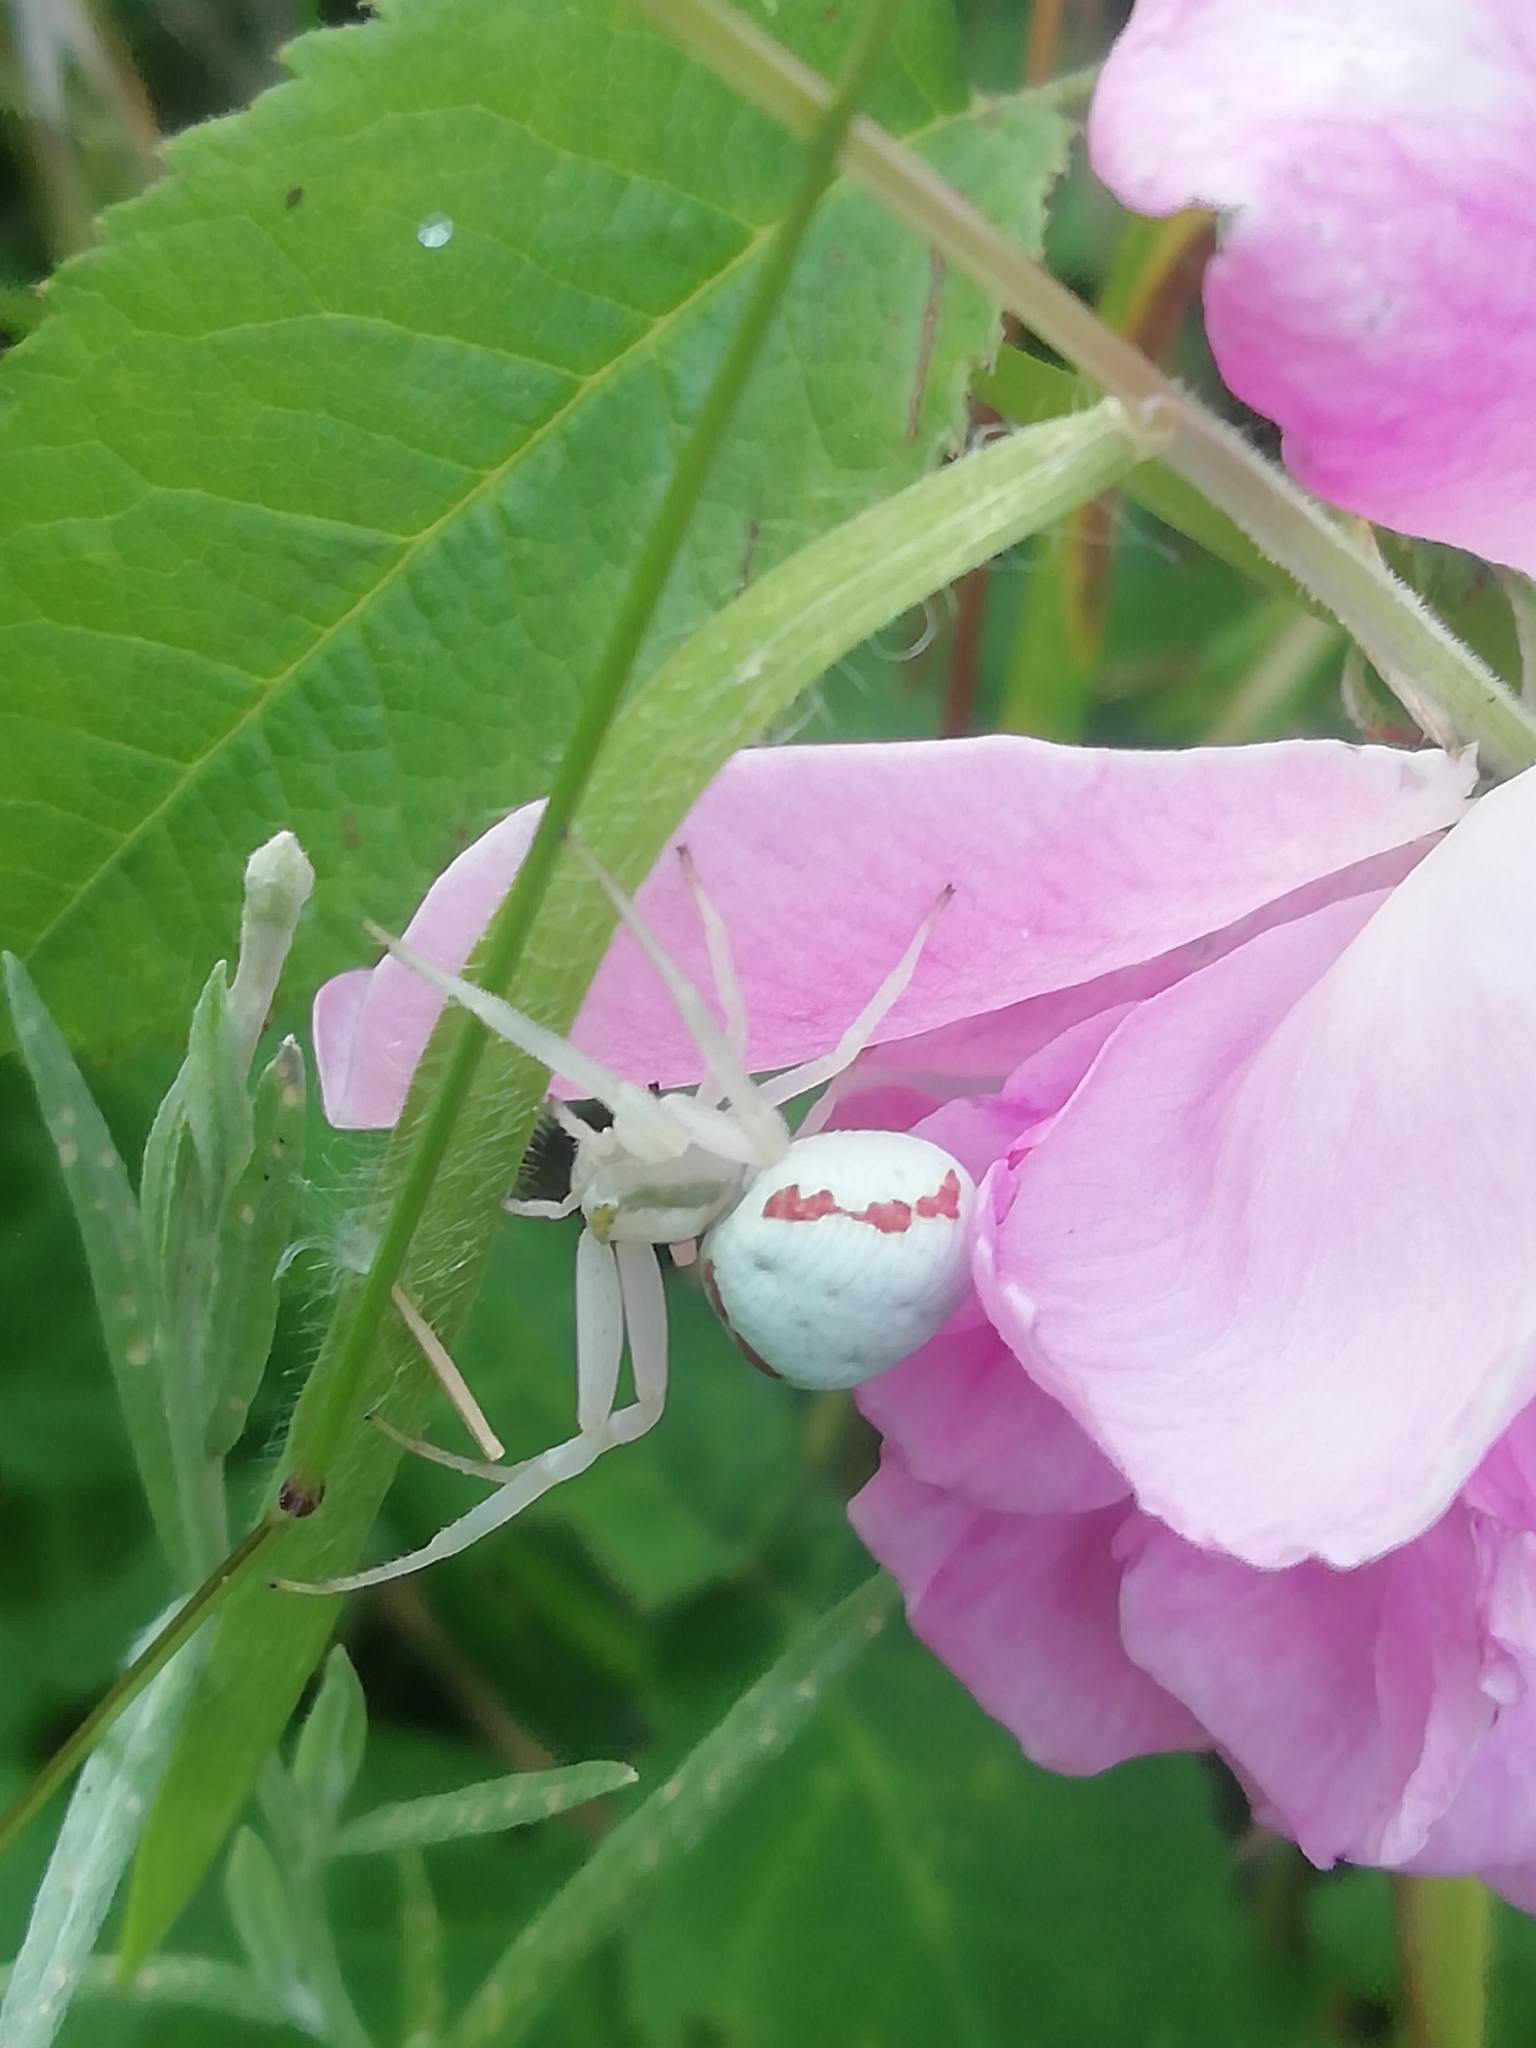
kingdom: Animalia
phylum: Arthropoda
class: Arachnida
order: Araneae
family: Thomisidae
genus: Misumena
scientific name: Misumena vatia
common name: Goldenrod crab spider
